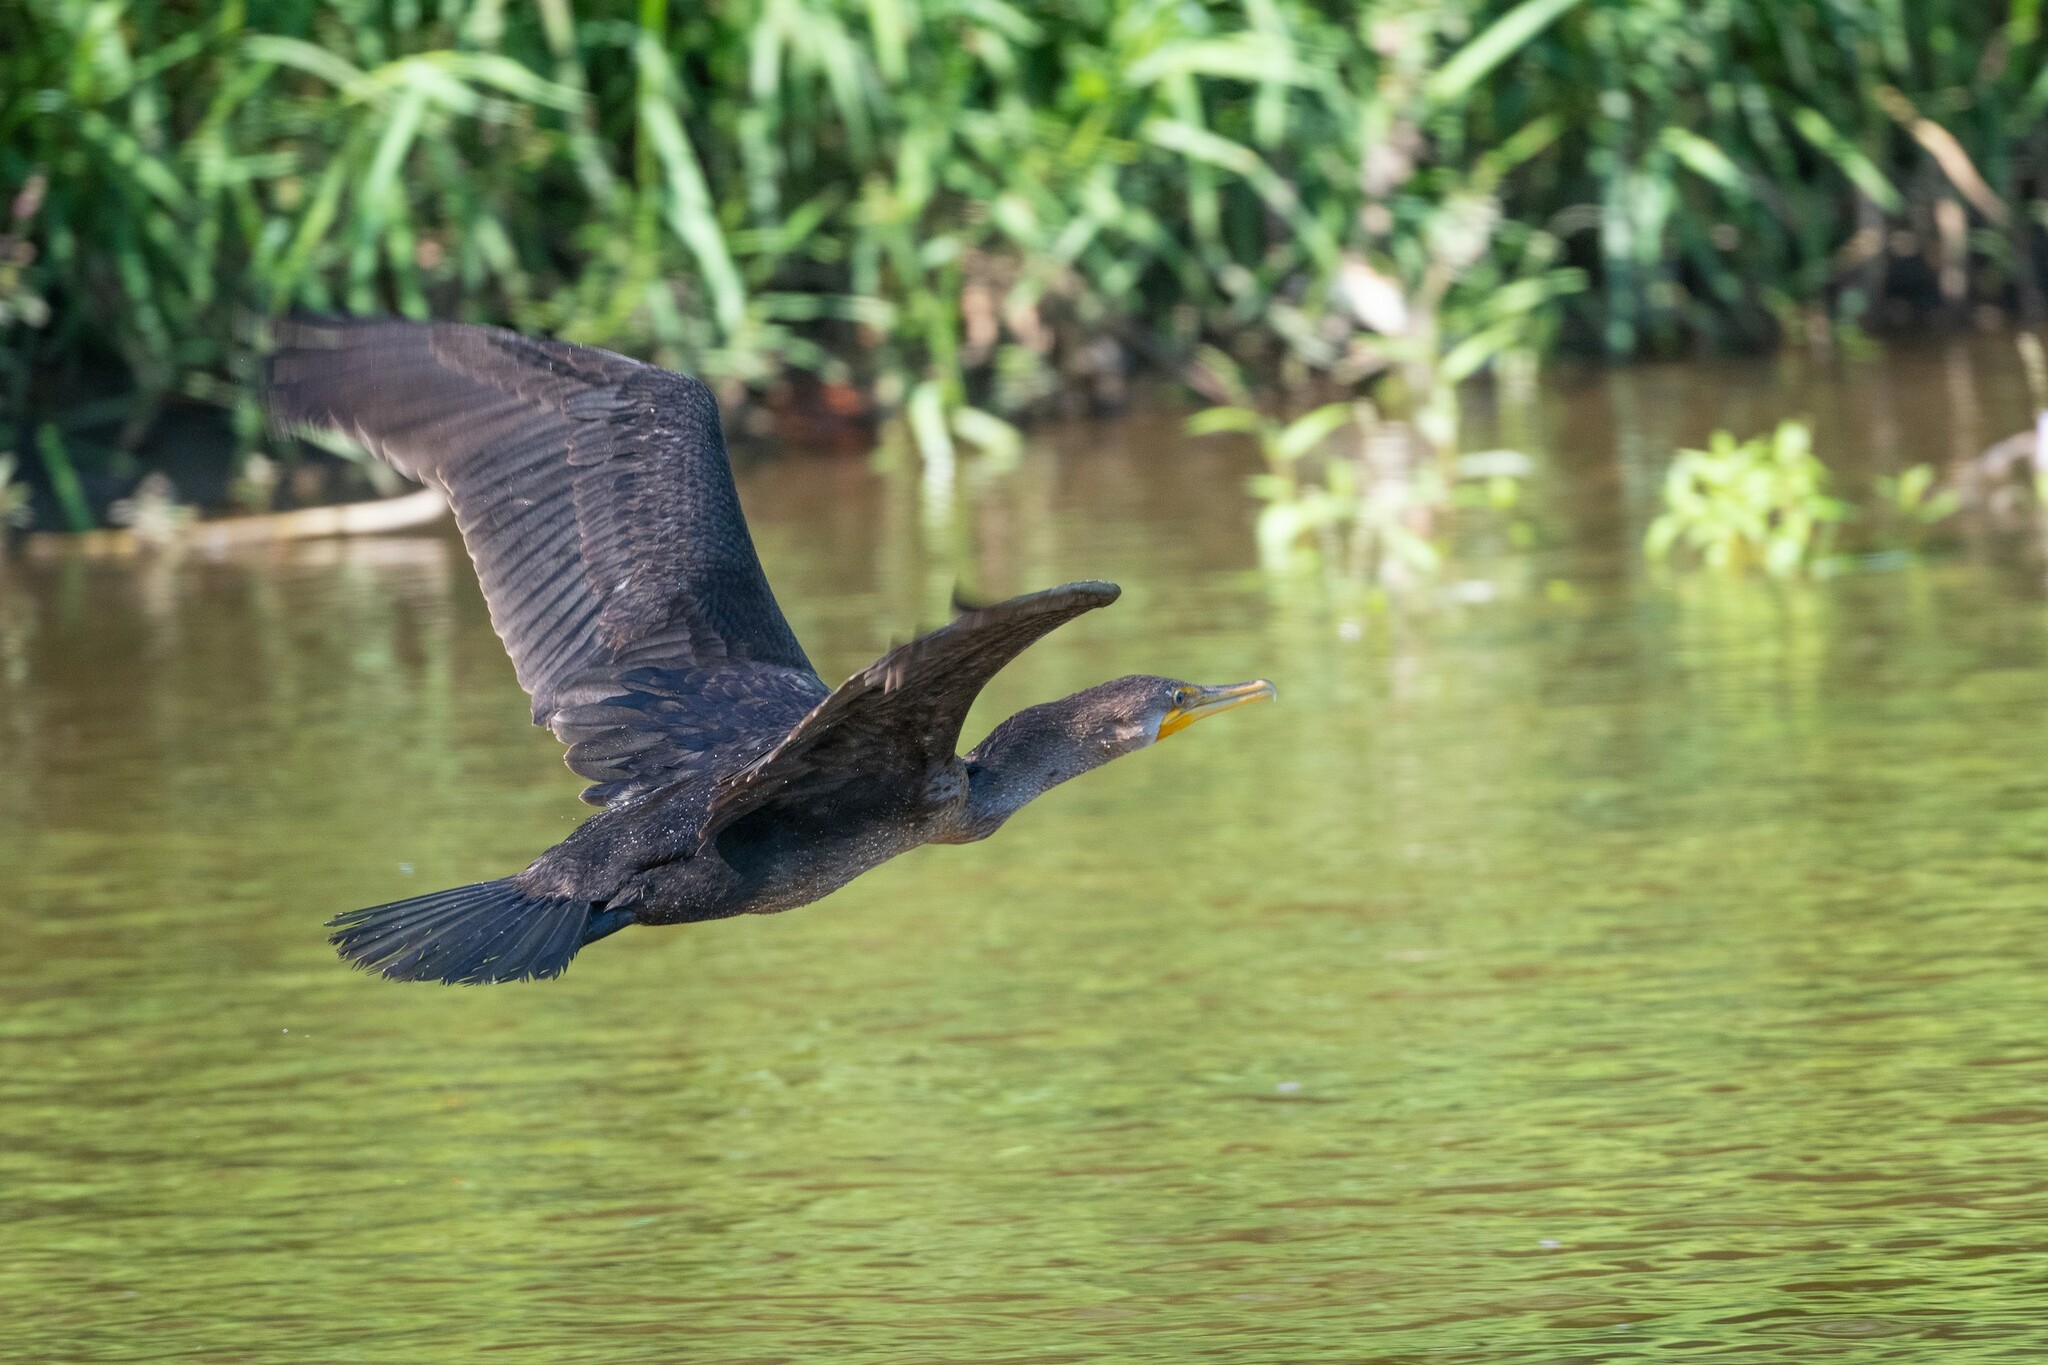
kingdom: Animalia
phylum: Chordata
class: Aves
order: Suliformes
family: Phalacrocoracidae
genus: Phalacrocorax
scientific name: Phalacrocorax auritus
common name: Double-crested cormorant
